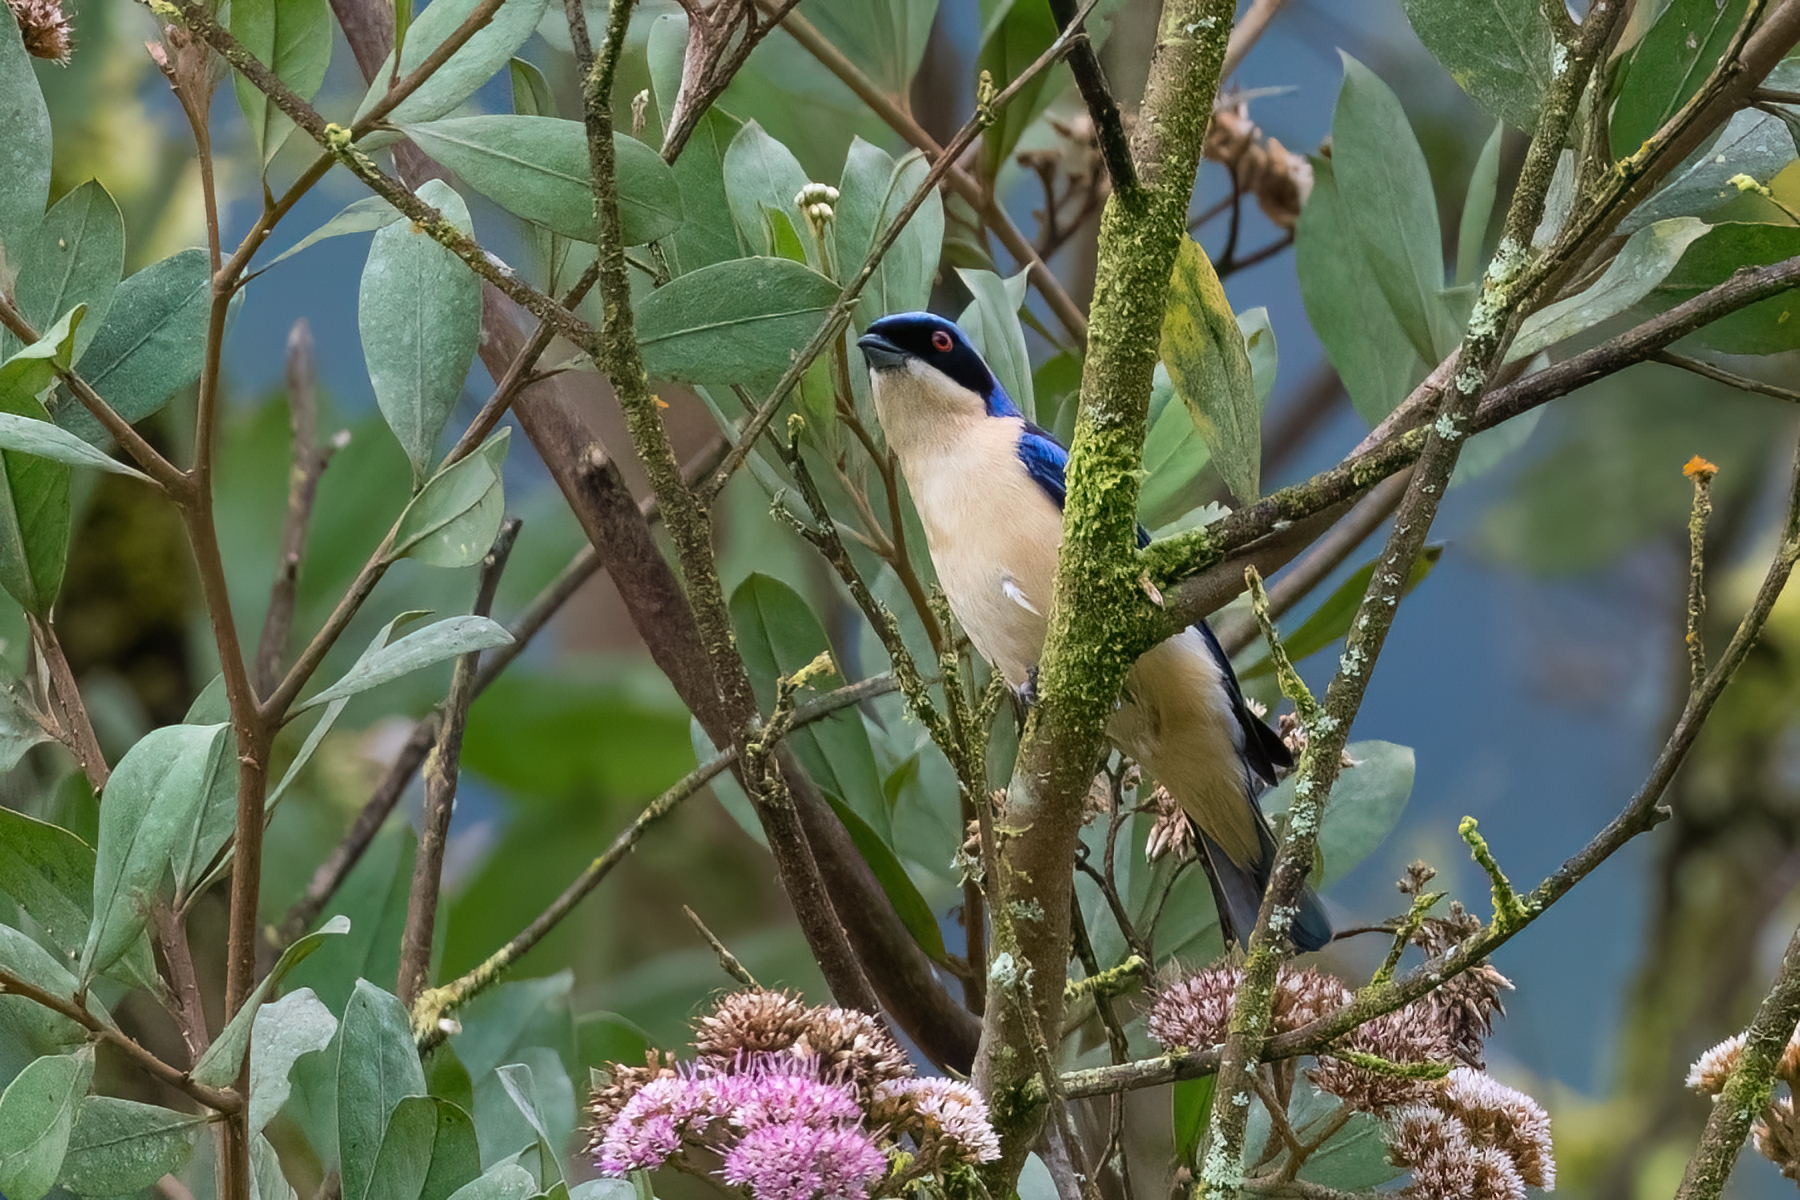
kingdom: Animalia
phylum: Chordata
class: Aves
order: Passeriformes
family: Thraupidae
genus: Pipraeidea
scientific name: Pipraeidea melanonota
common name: Fawn-breasted tanager
